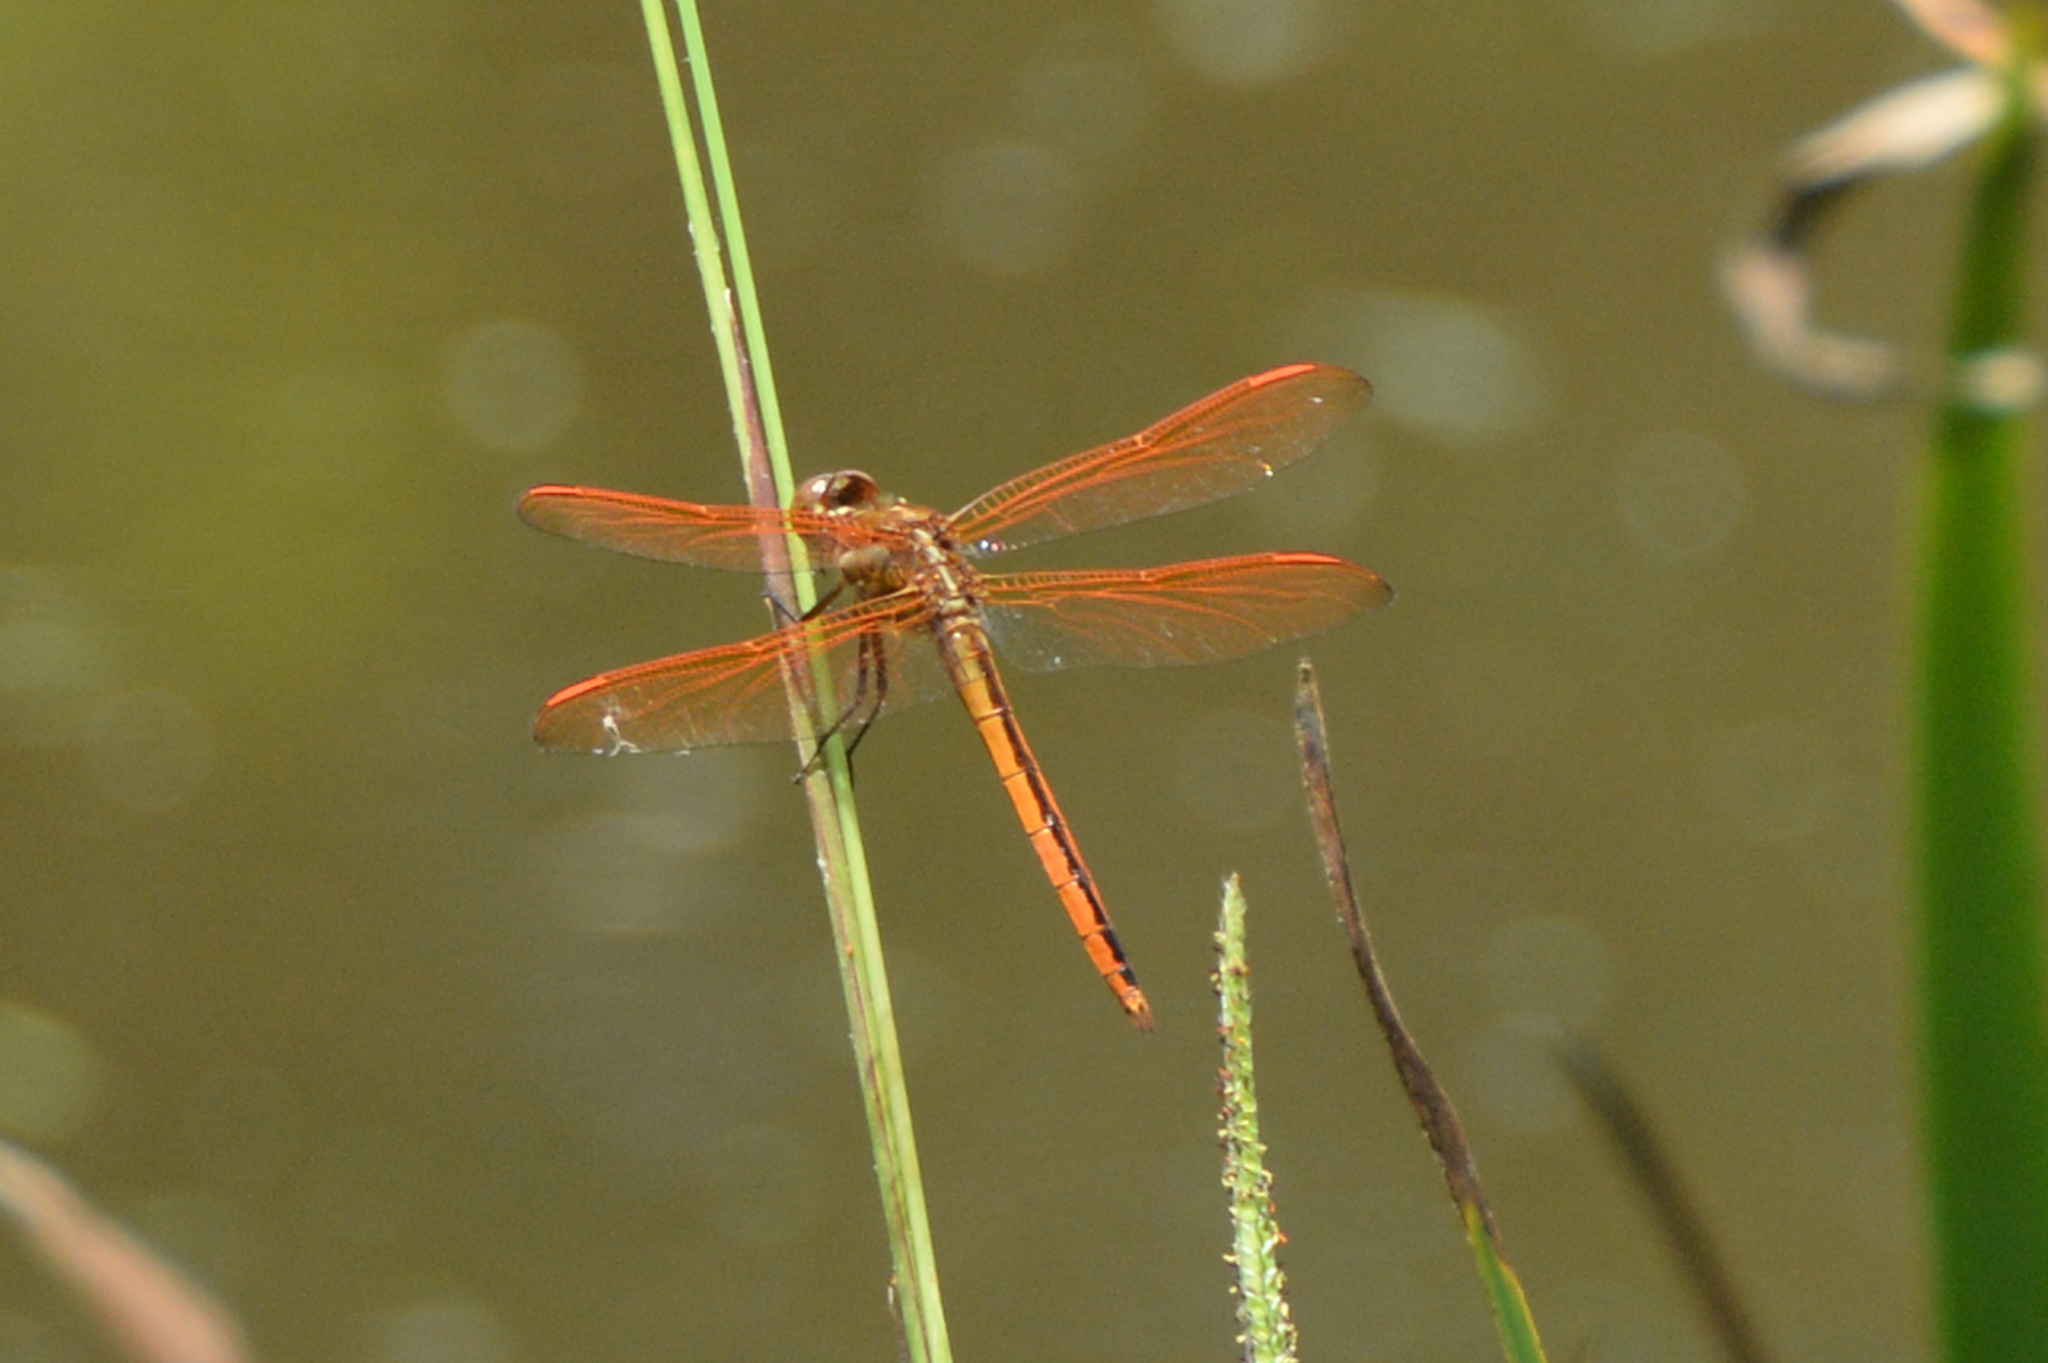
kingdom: Animalia
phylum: Arthropoda
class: Insecta
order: Odonata
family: Libellulidae
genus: Libellula
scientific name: Libellula auripennis
